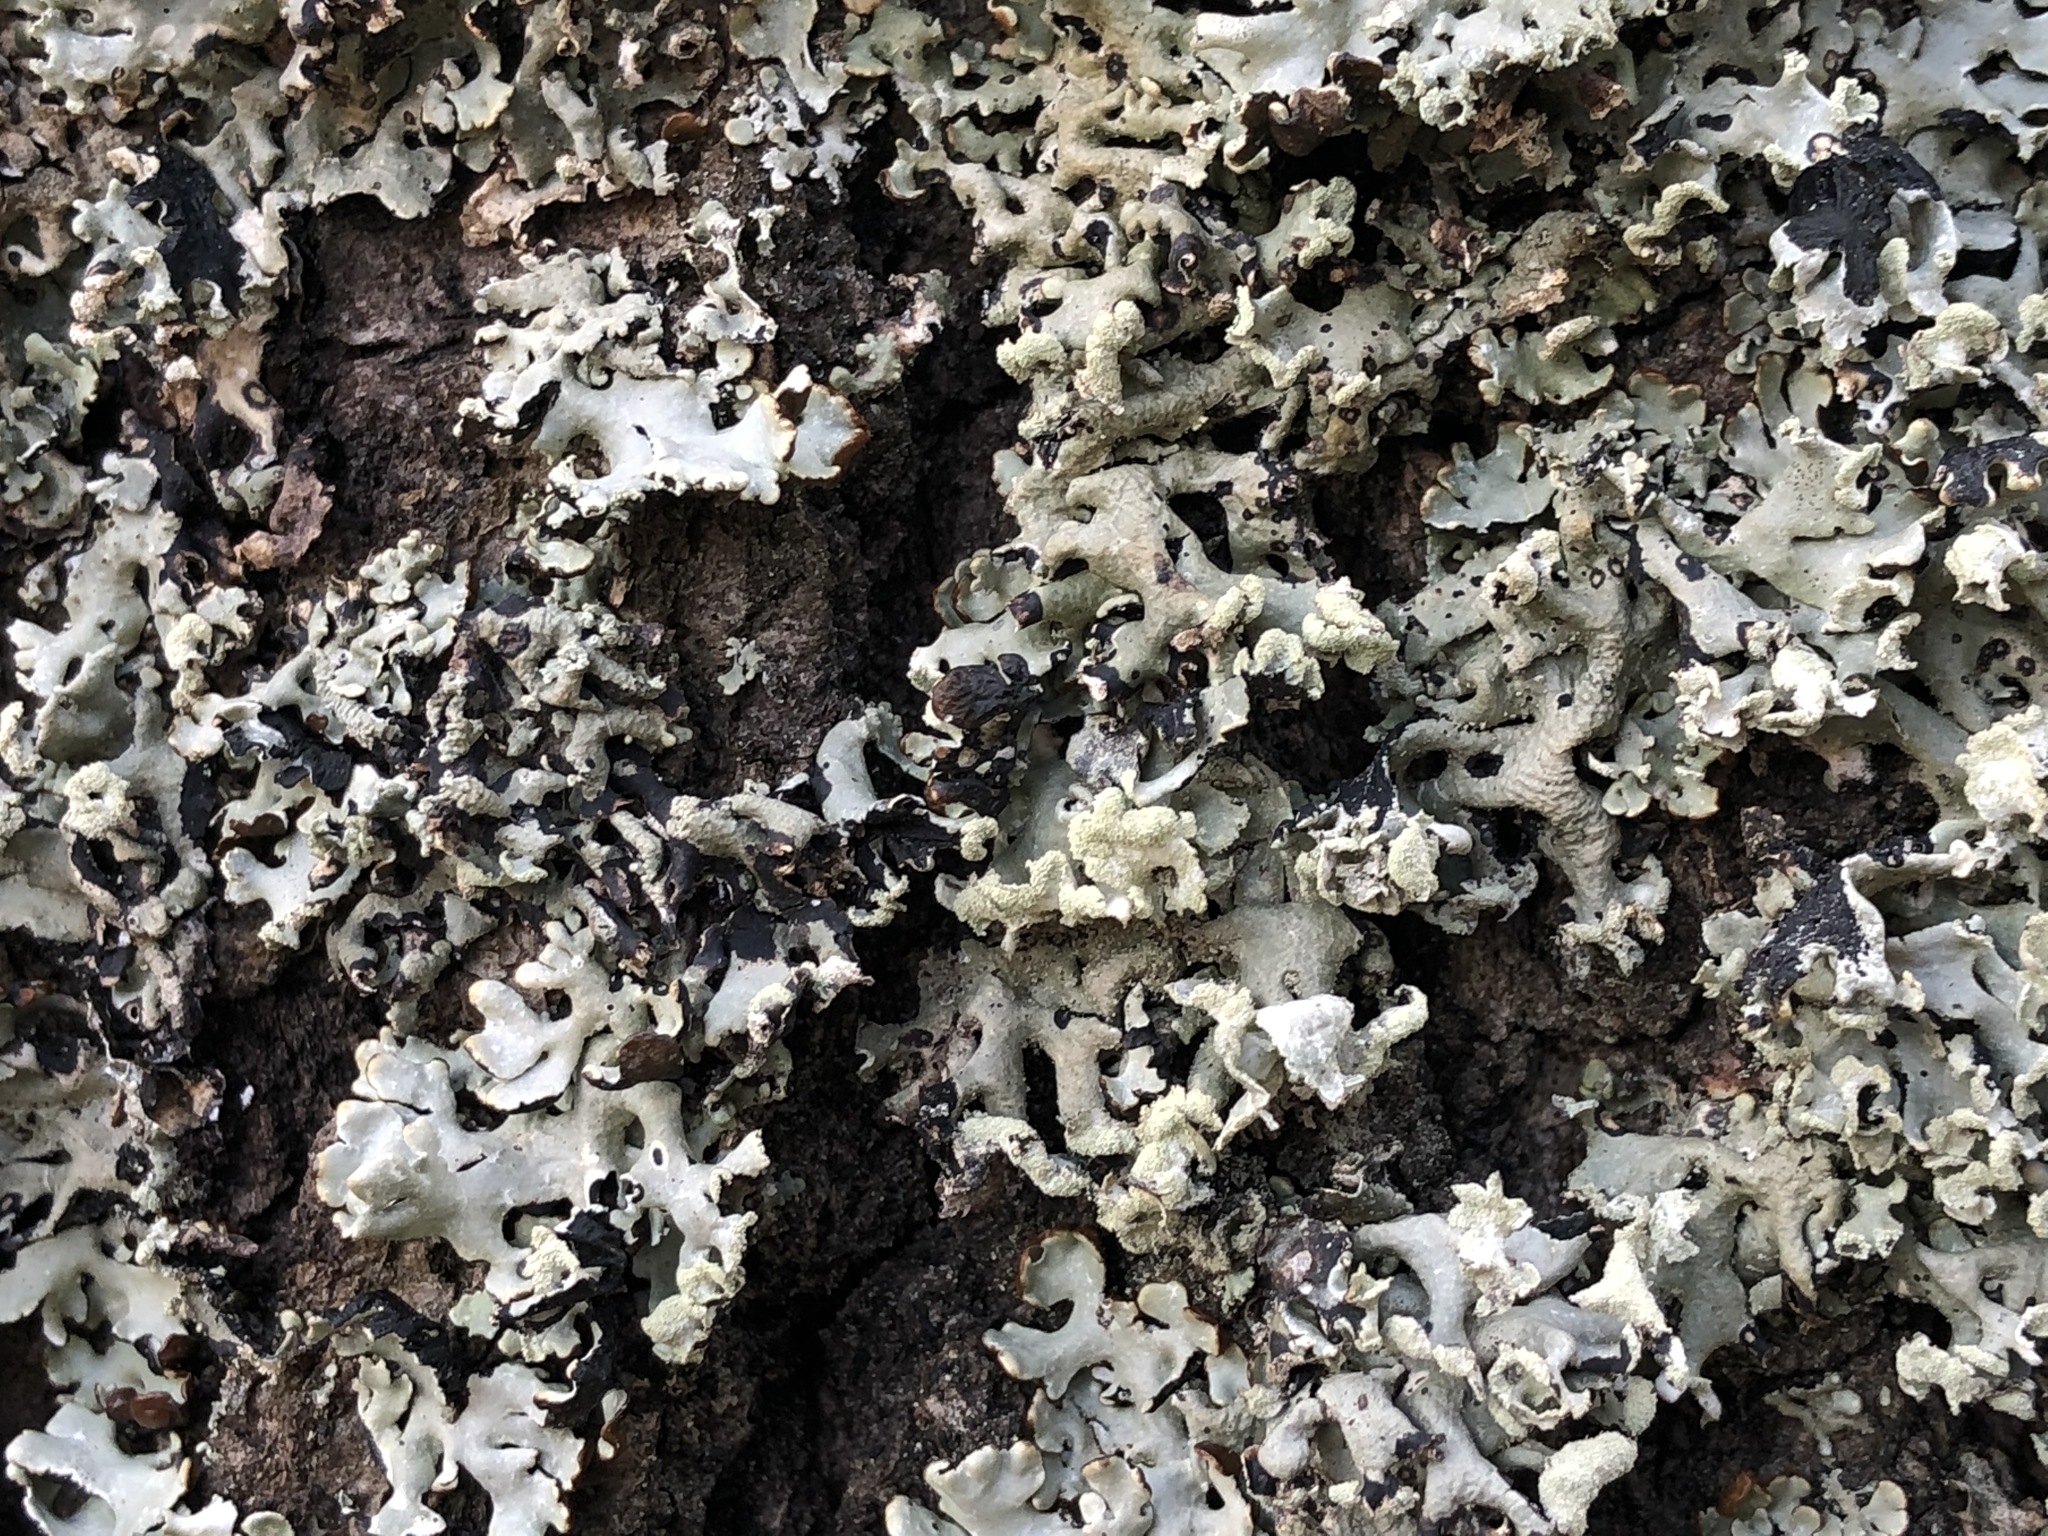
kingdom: Fungi
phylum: Ascomycota
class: Lecanoromycetes
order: Lecanorales
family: Parmeliaceae
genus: Hypogymnia
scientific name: Hypogymnia physodes
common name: Dark crottle
